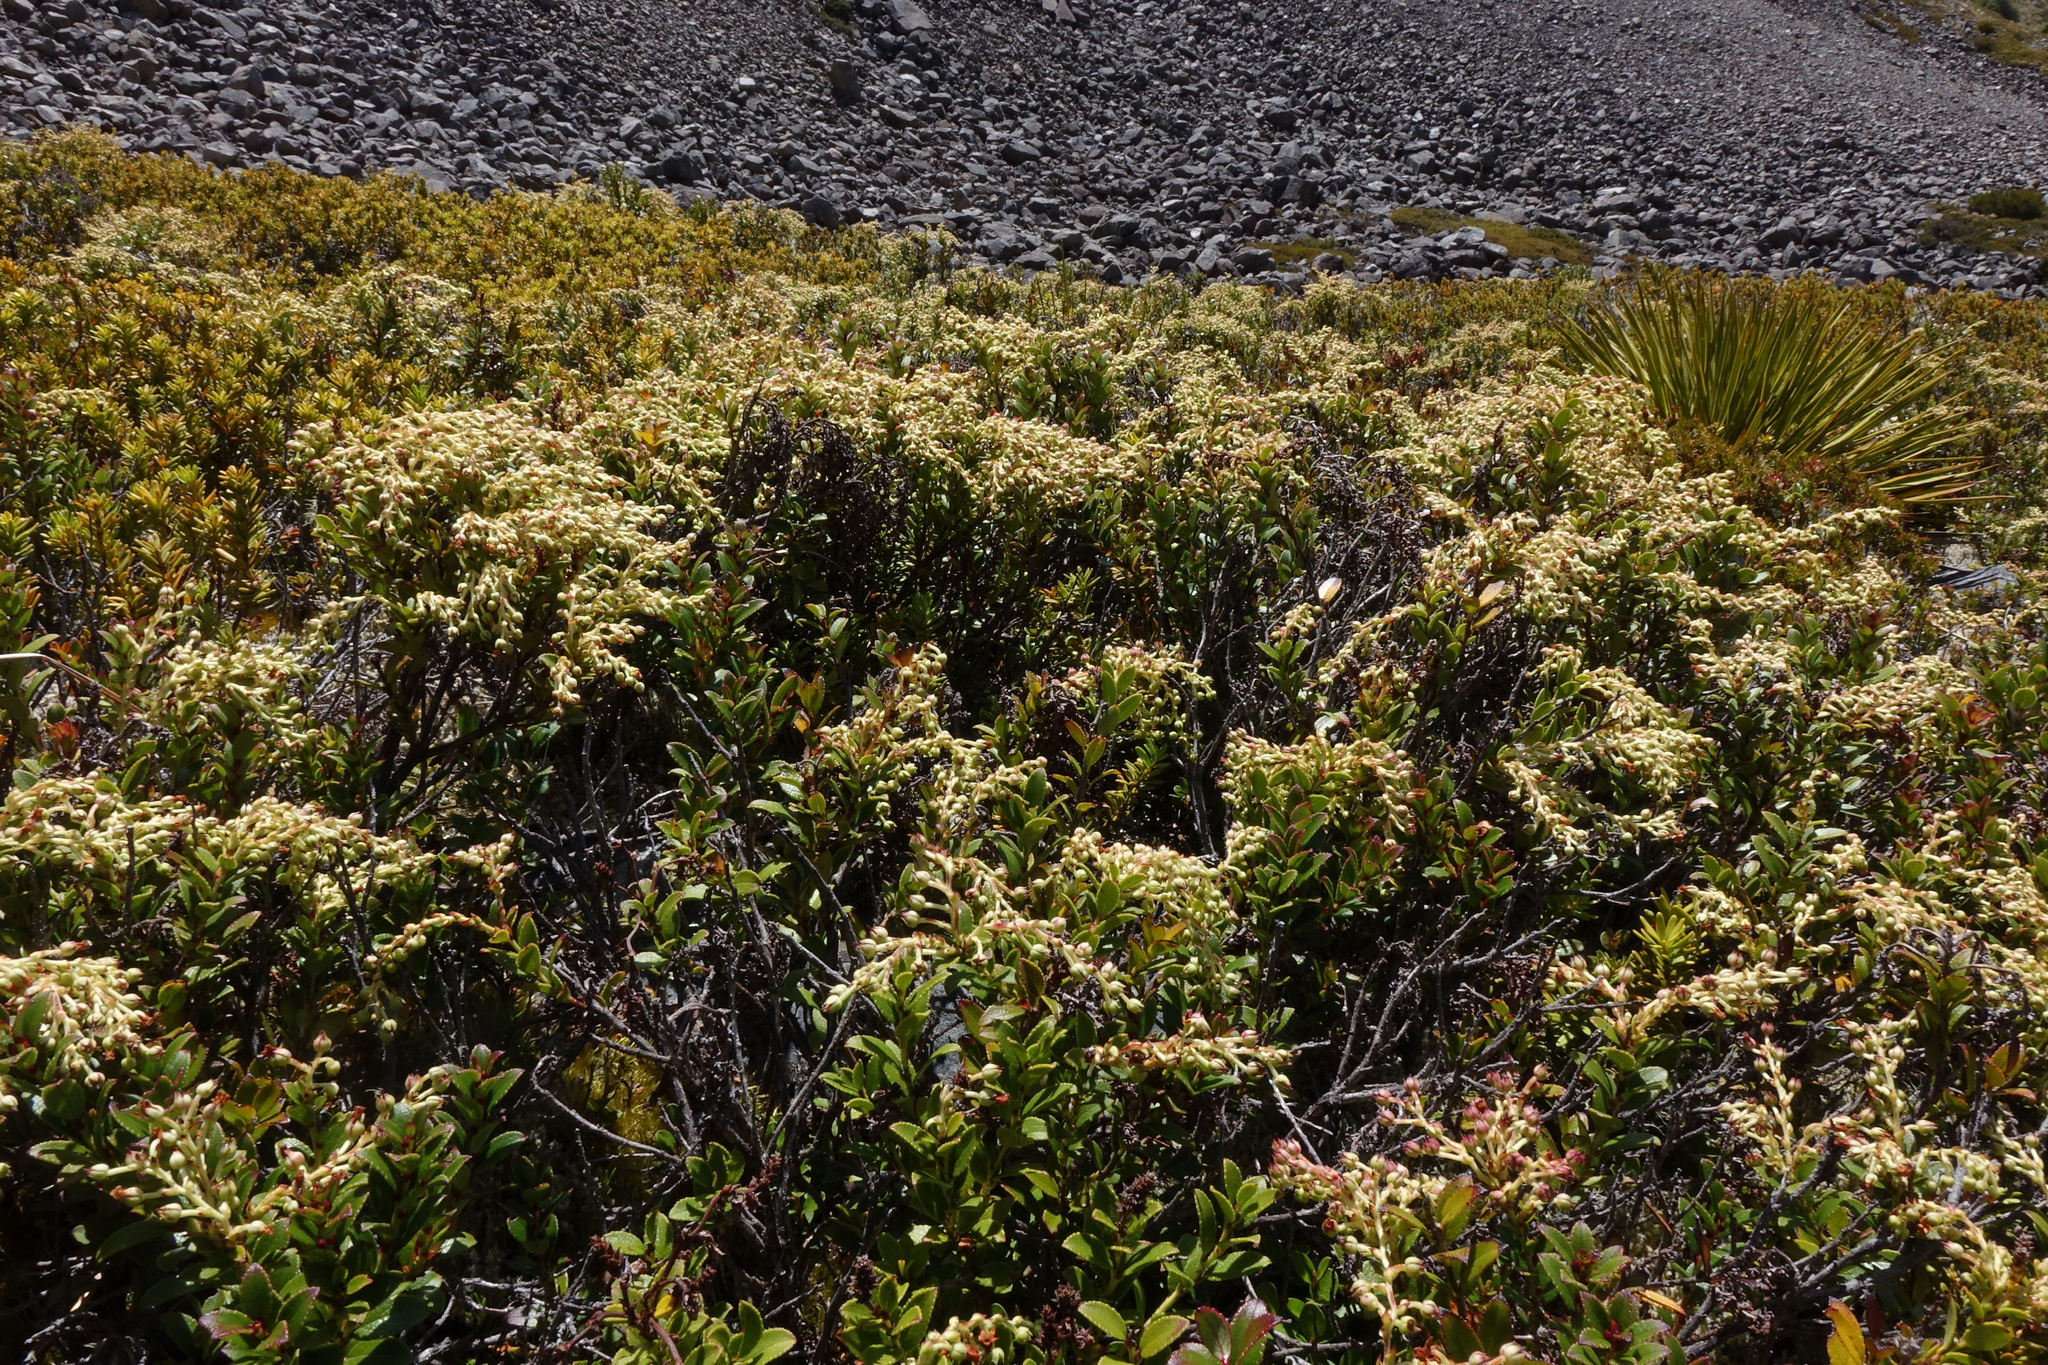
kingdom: Plantae
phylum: Tracheophyta
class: Magnoliopsida
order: Ericales
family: Ericaceae
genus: Gaultheria
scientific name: Gaultheria crassa
